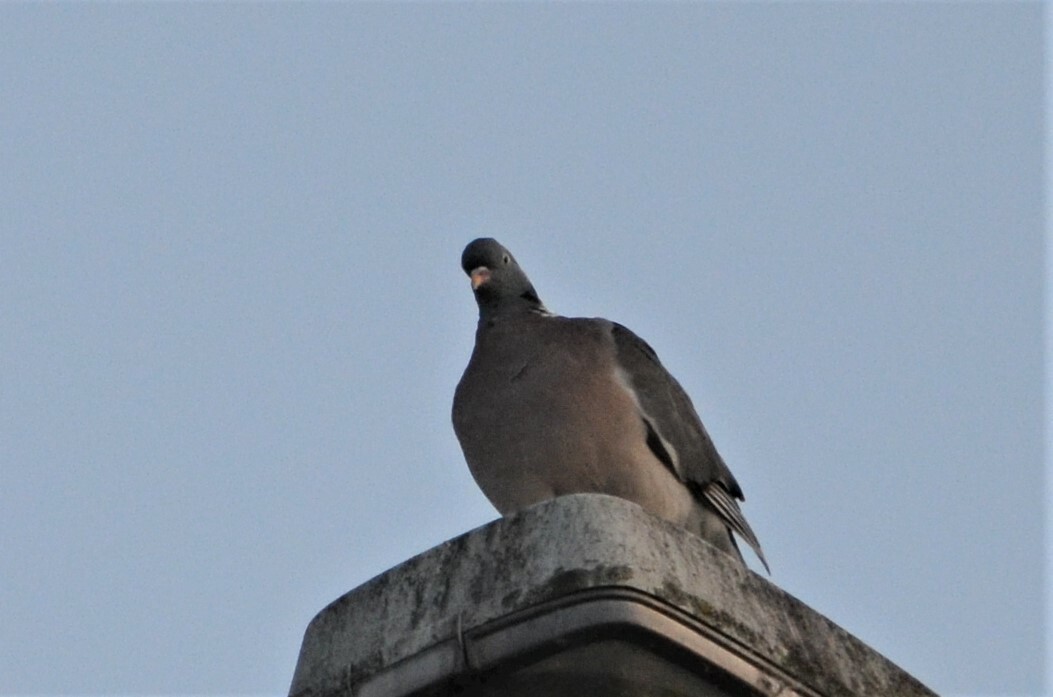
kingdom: Animalia
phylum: Chordata
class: Aves
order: Columbiformes
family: Columbidae
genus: Columba
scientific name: Columba palumbus
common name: Common wood pigeon
